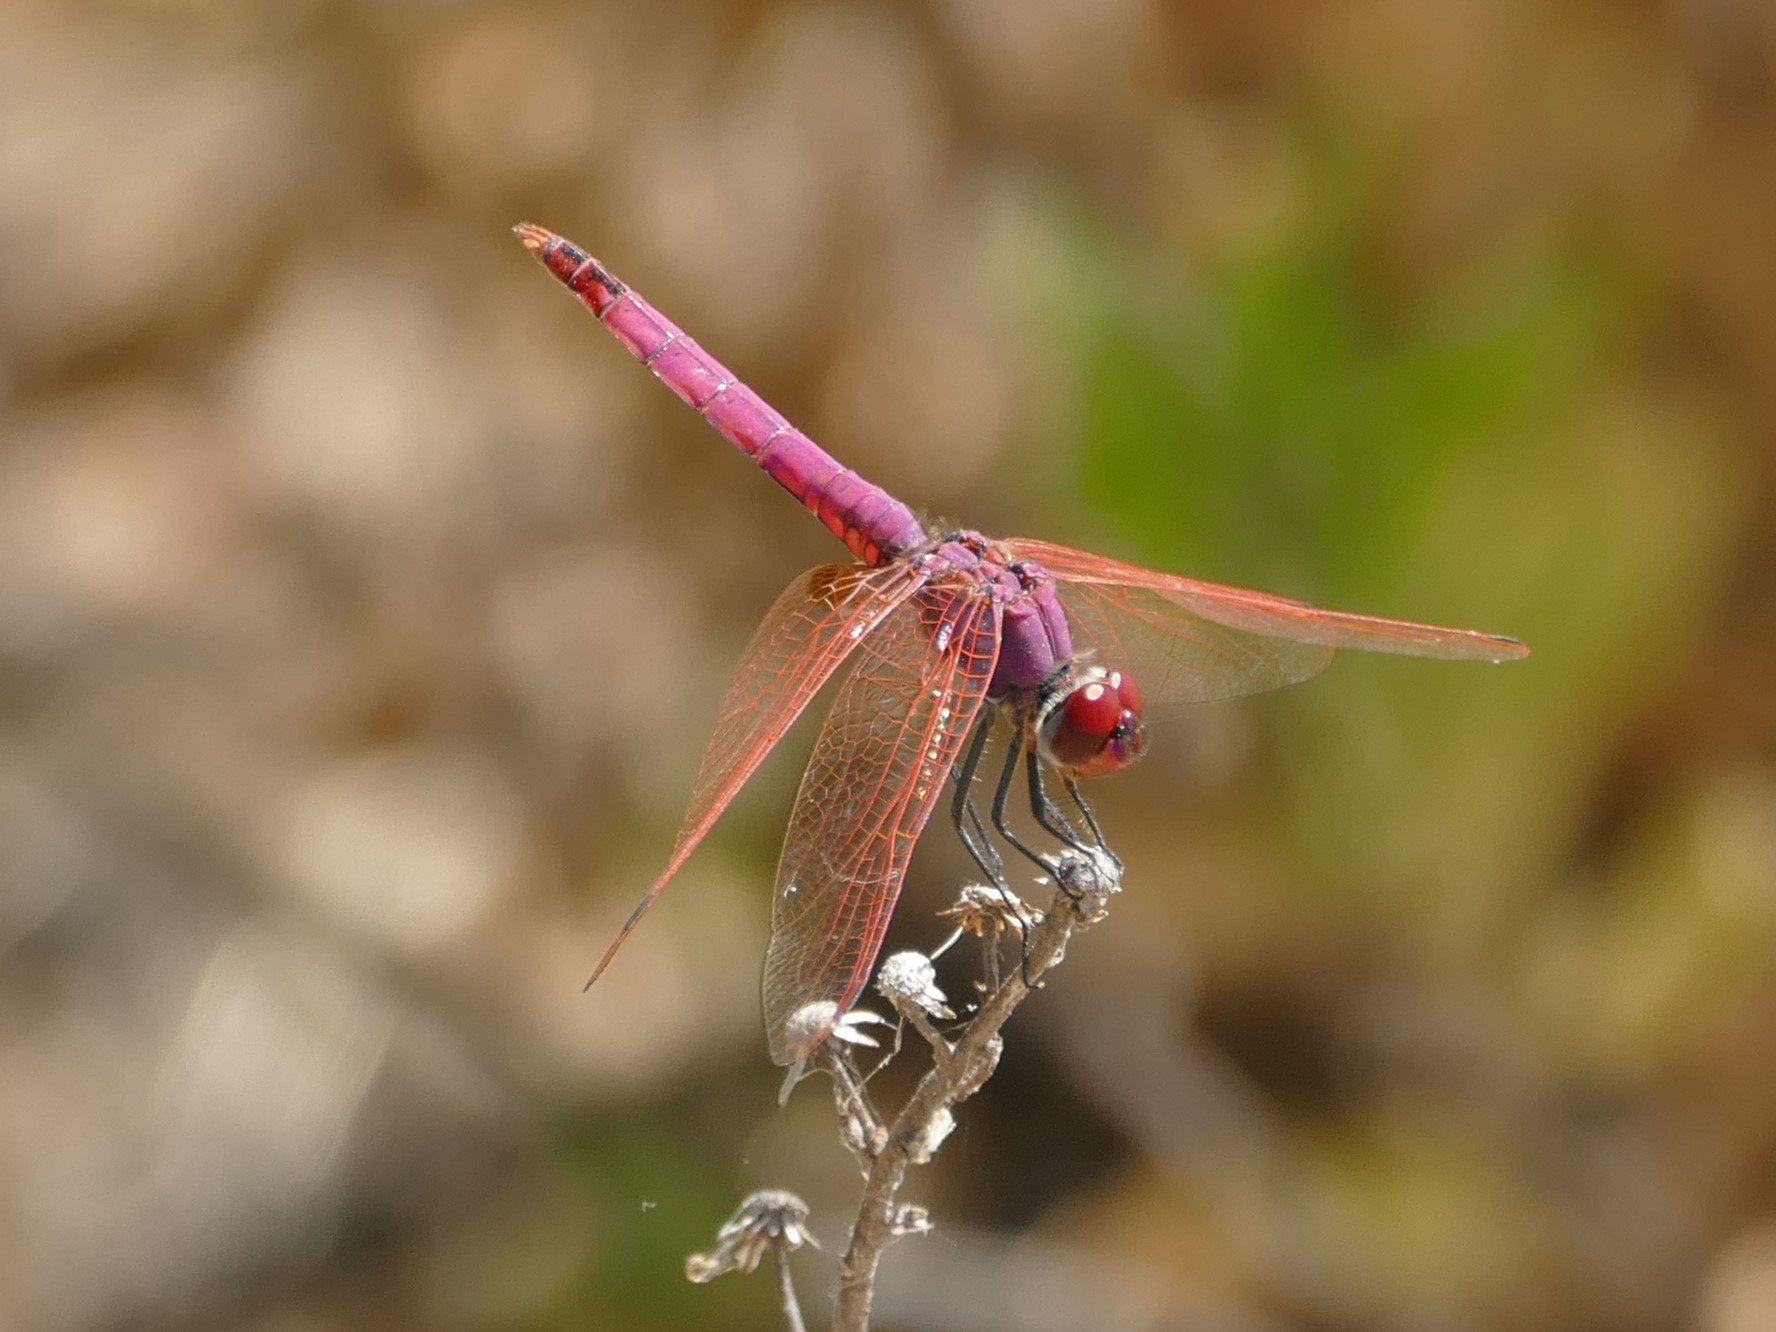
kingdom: Animalia
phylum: Arthropoda
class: Insecta
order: Odonata
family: Libellulidae
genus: Trithemis
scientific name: Trithemis annulata
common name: Violet dropwing
